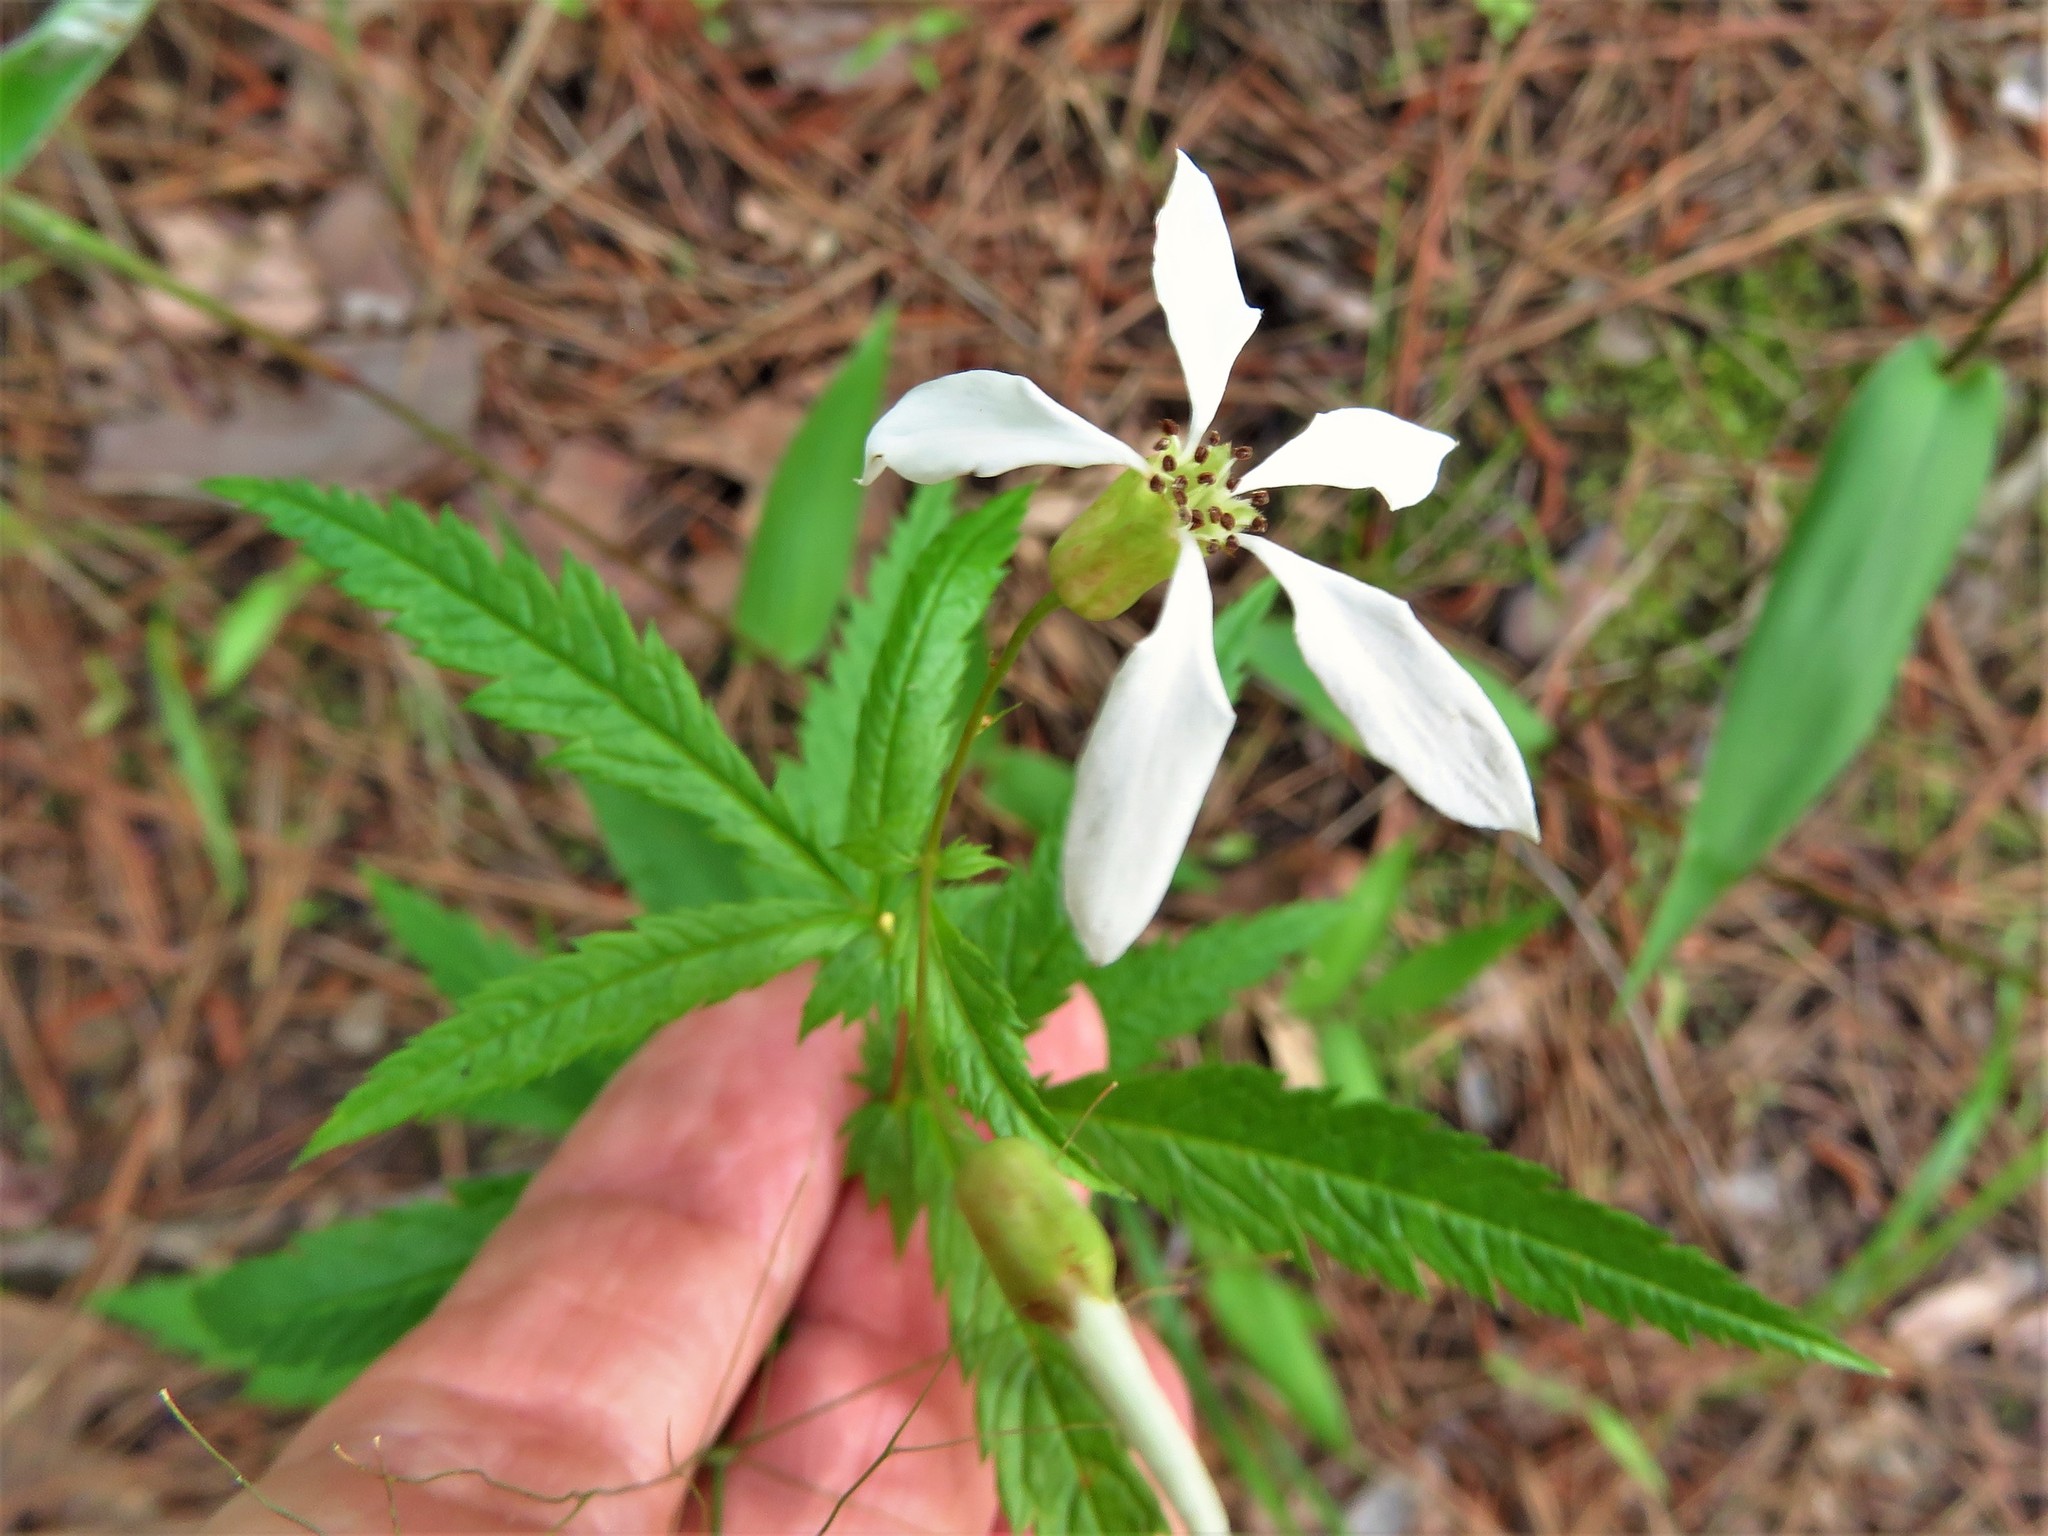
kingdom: Plantae
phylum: Tracheophyta
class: Magnoliopsida
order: Rosales
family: Rosaceae
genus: Gillenia
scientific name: Gillenia stipulata
